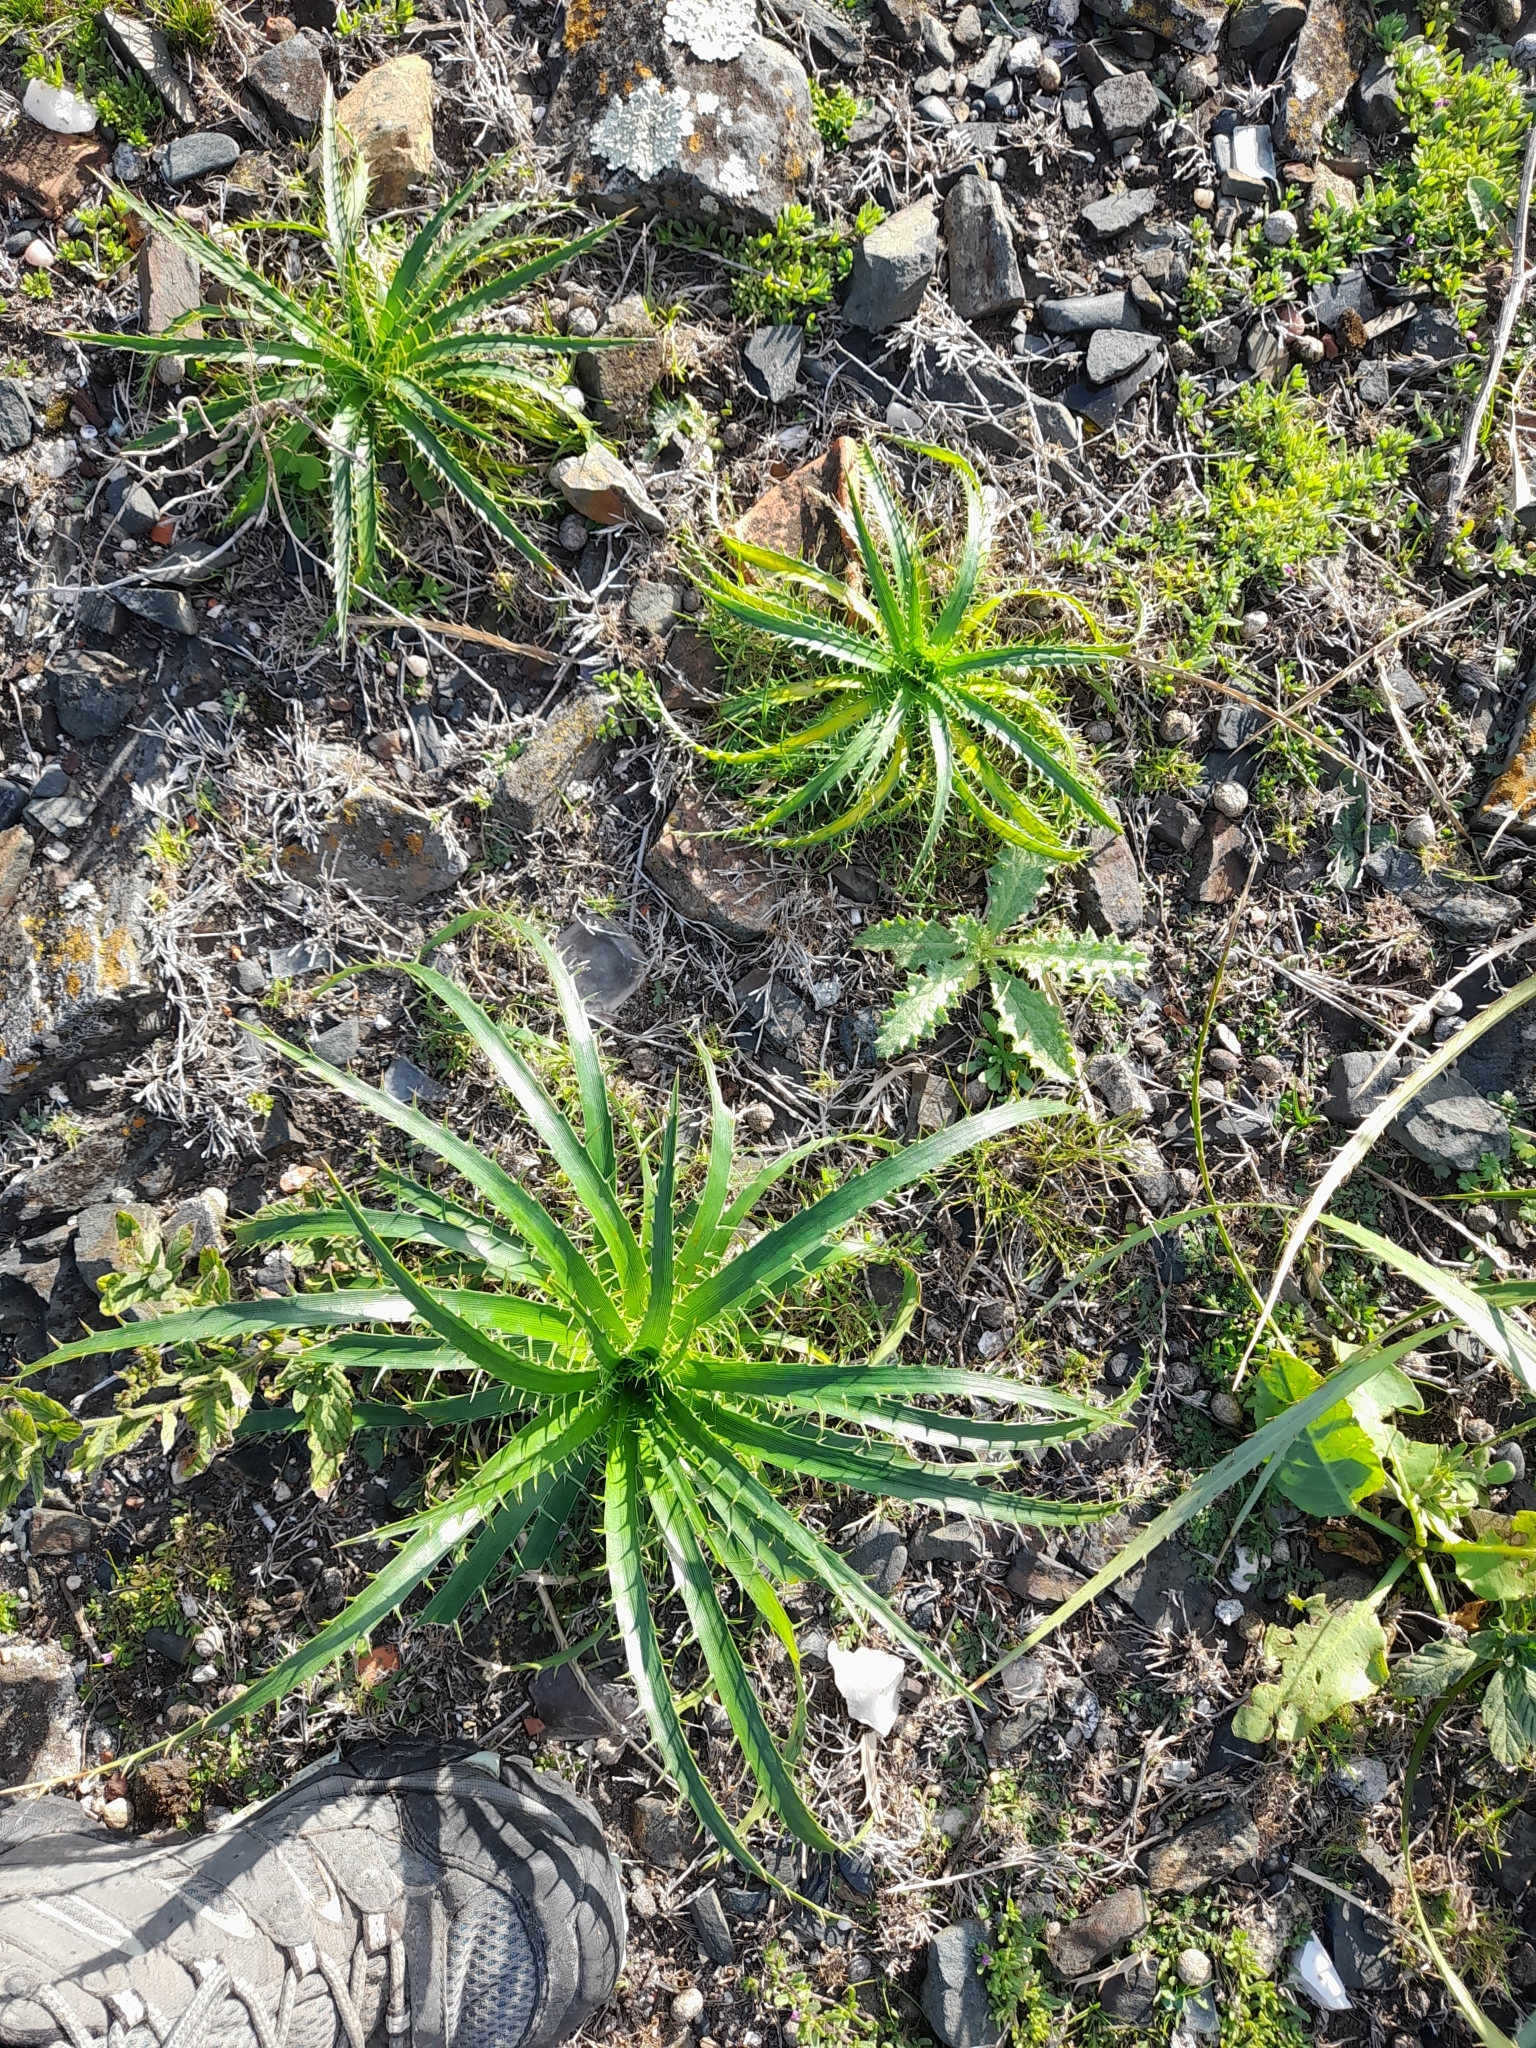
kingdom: Plantae
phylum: Tracheophyta
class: Magnoliopsida
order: Apiales
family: Apiaceae
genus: Eryngium
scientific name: Eryngium horridum
